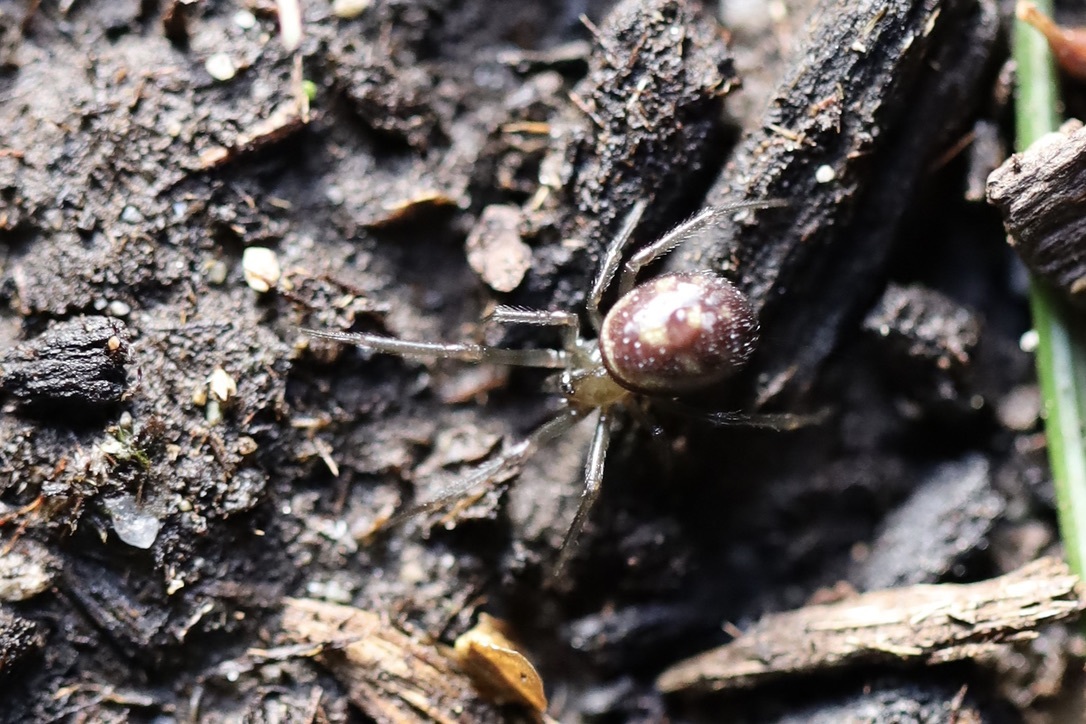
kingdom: Animalia
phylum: Arthropoda
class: Arachnida
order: Araneae
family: Theridiidae
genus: Steatoda
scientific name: Steatoda grossa
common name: False black widow
